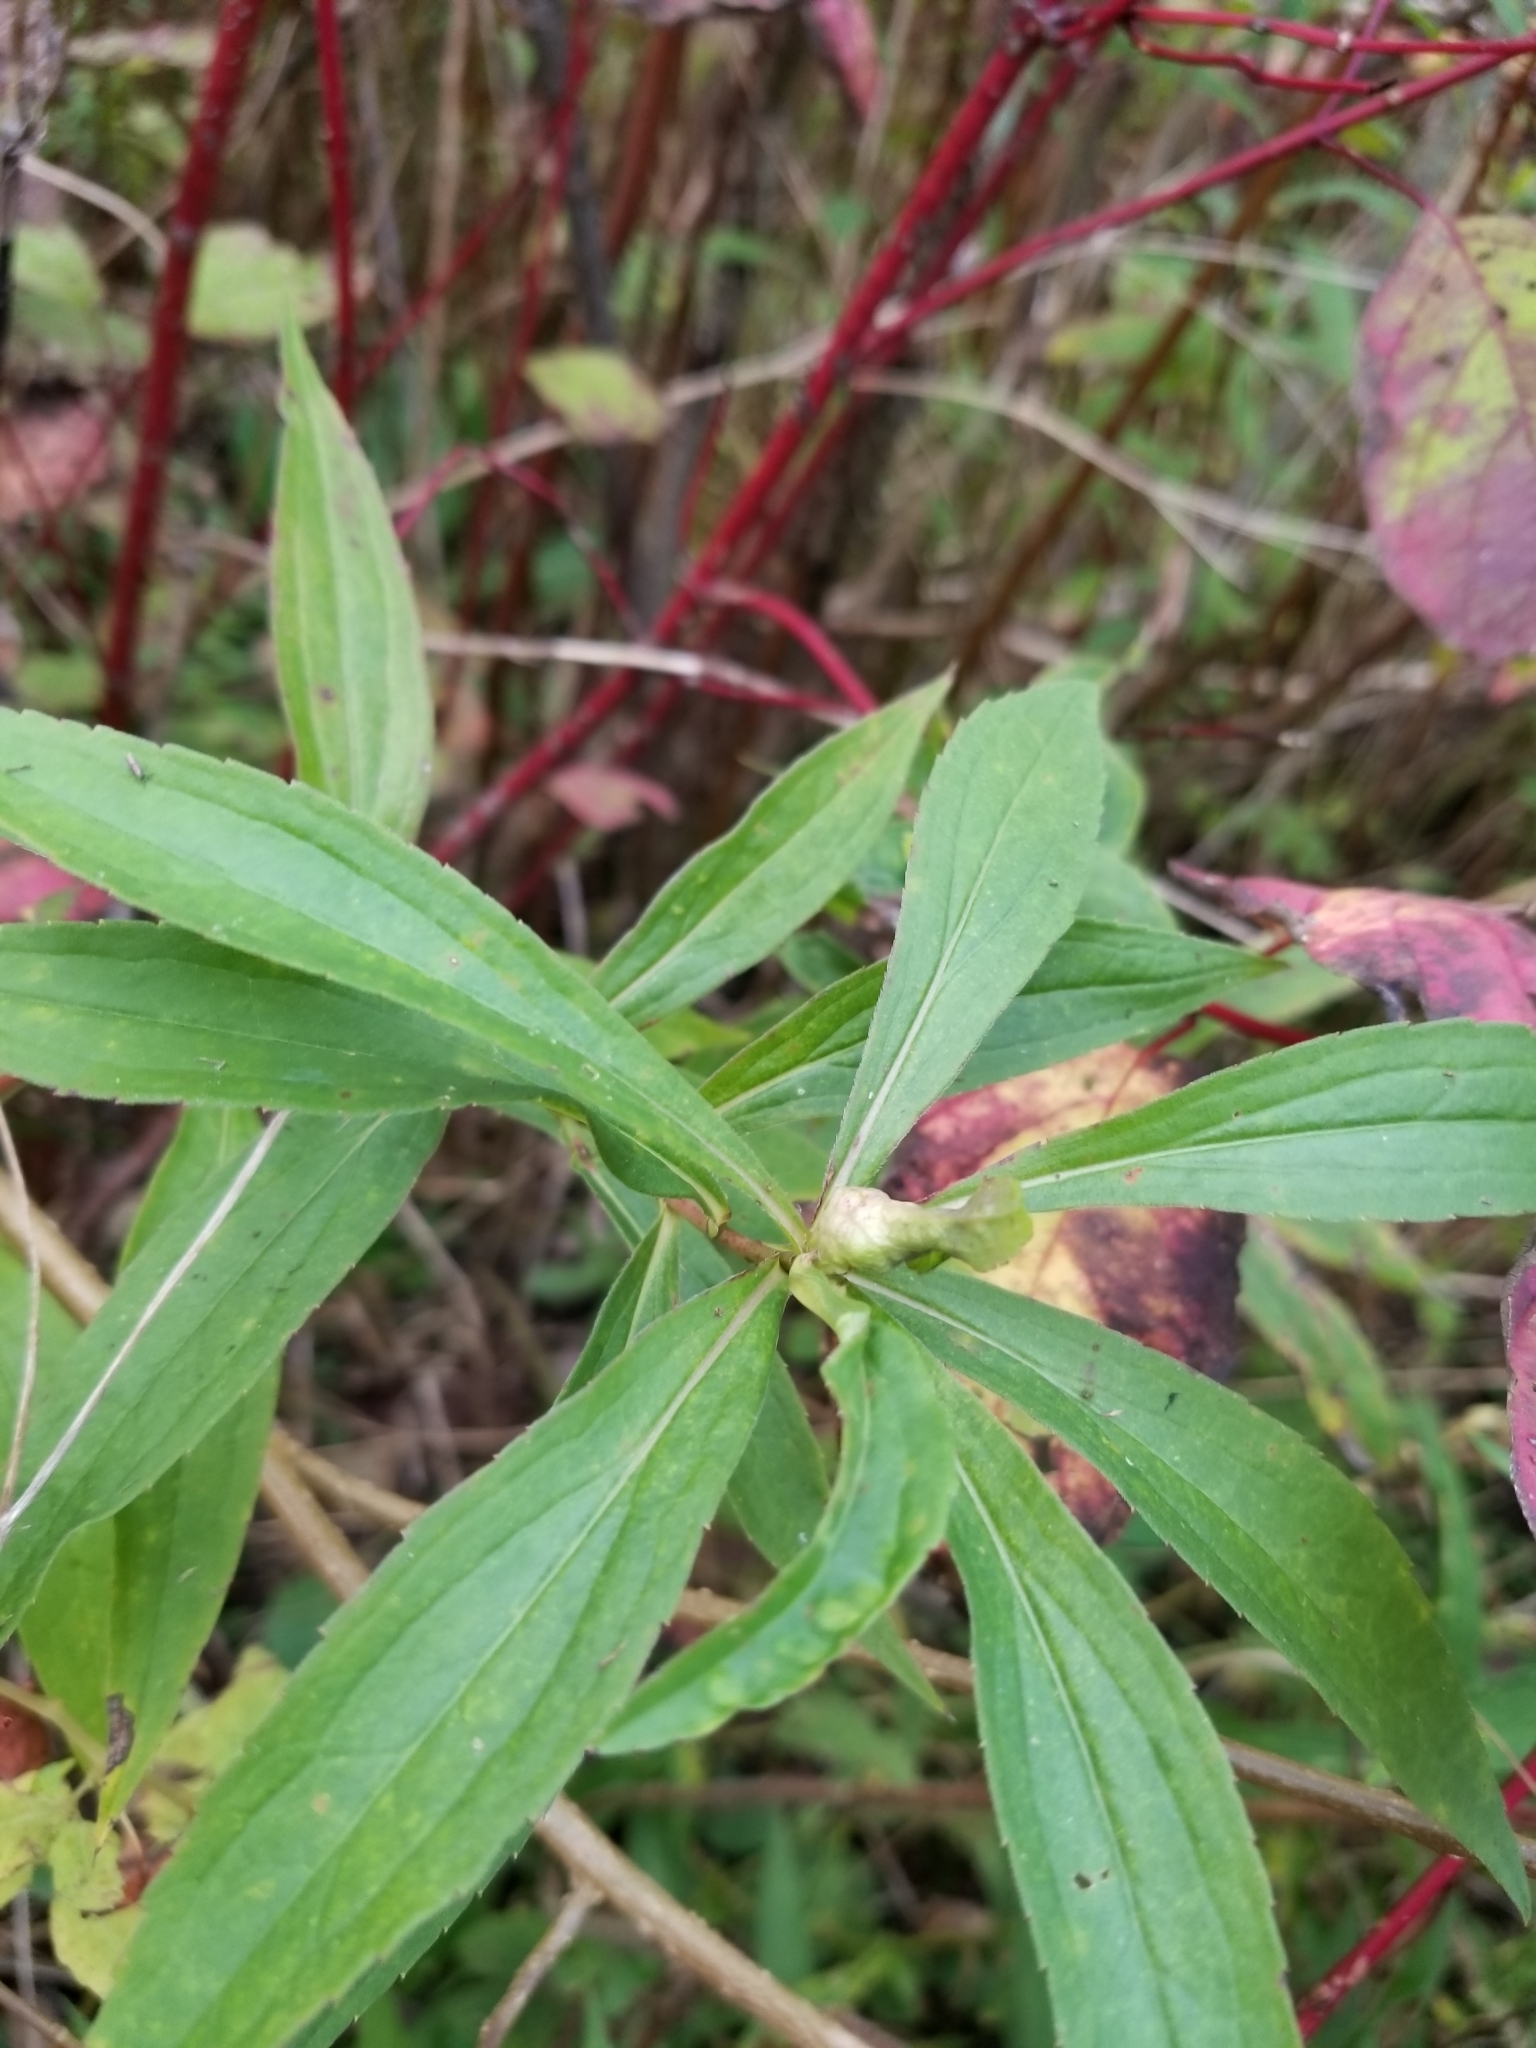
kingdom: Animalia
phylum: Arthropoda
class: Insecta
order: Diptera
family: Cecidomyiidae
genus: Dasineura
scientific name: Dasineura folliculi
